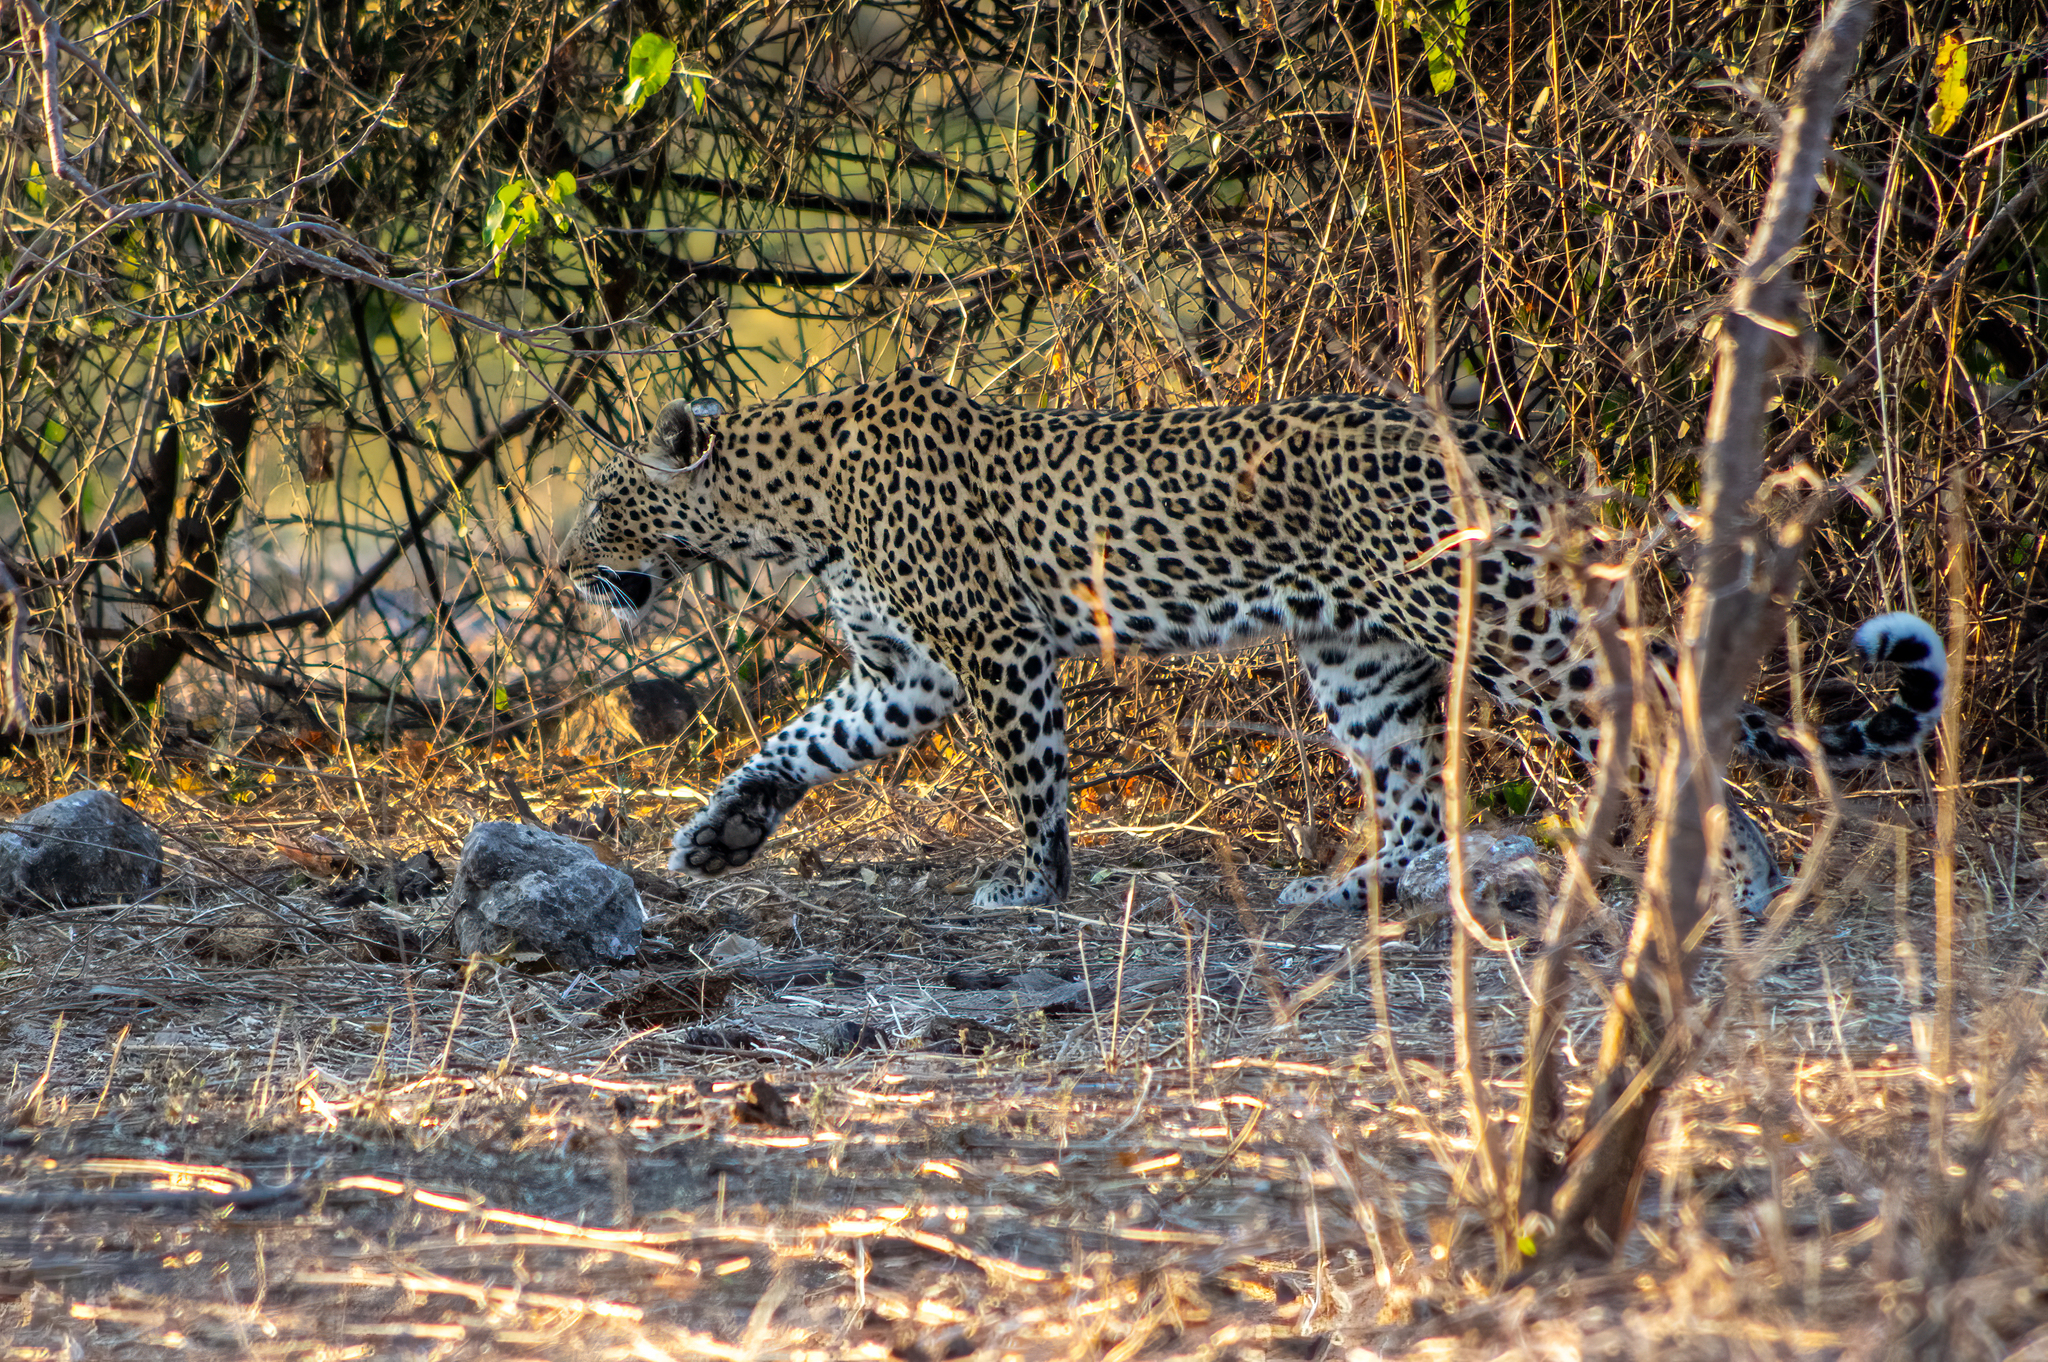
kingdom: Animalia
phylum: Chordata
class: Mammalia
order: Carnivora
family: Felidae
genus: Panthera
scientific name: Panthera pardus
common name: Leopard
